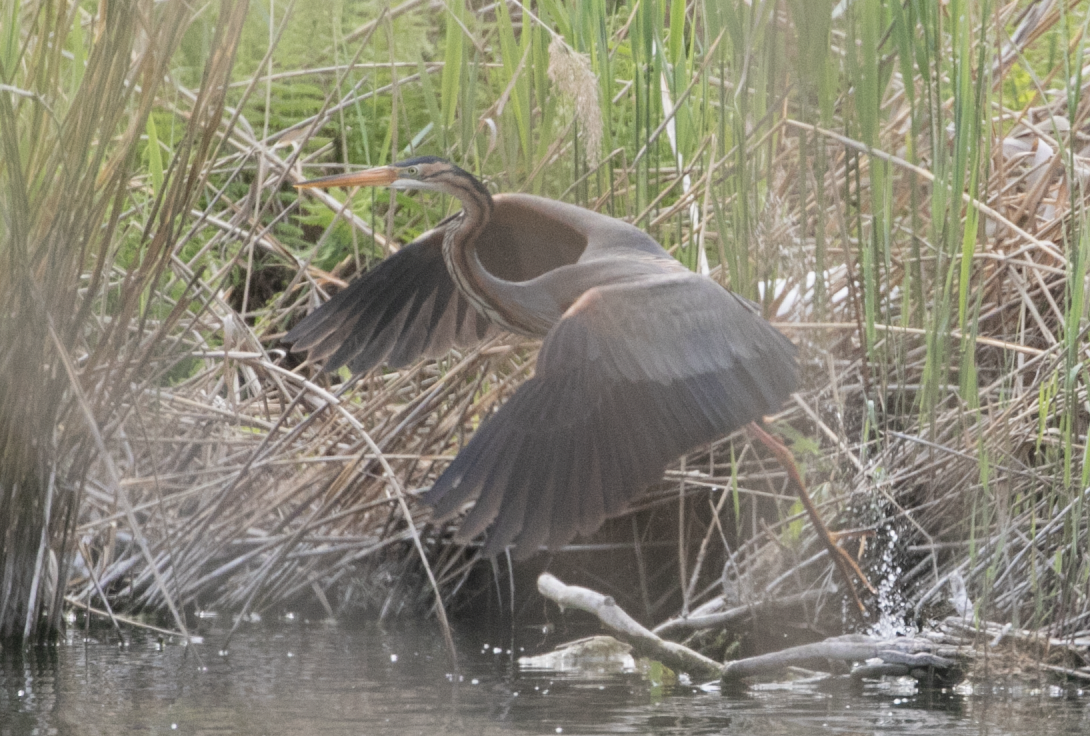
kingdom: Animalia
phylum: Chordata
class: Aves
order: Pelecaniformes
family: Ardeidae
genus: Ardea
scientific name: Ardea purpurea
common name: Purple heron
